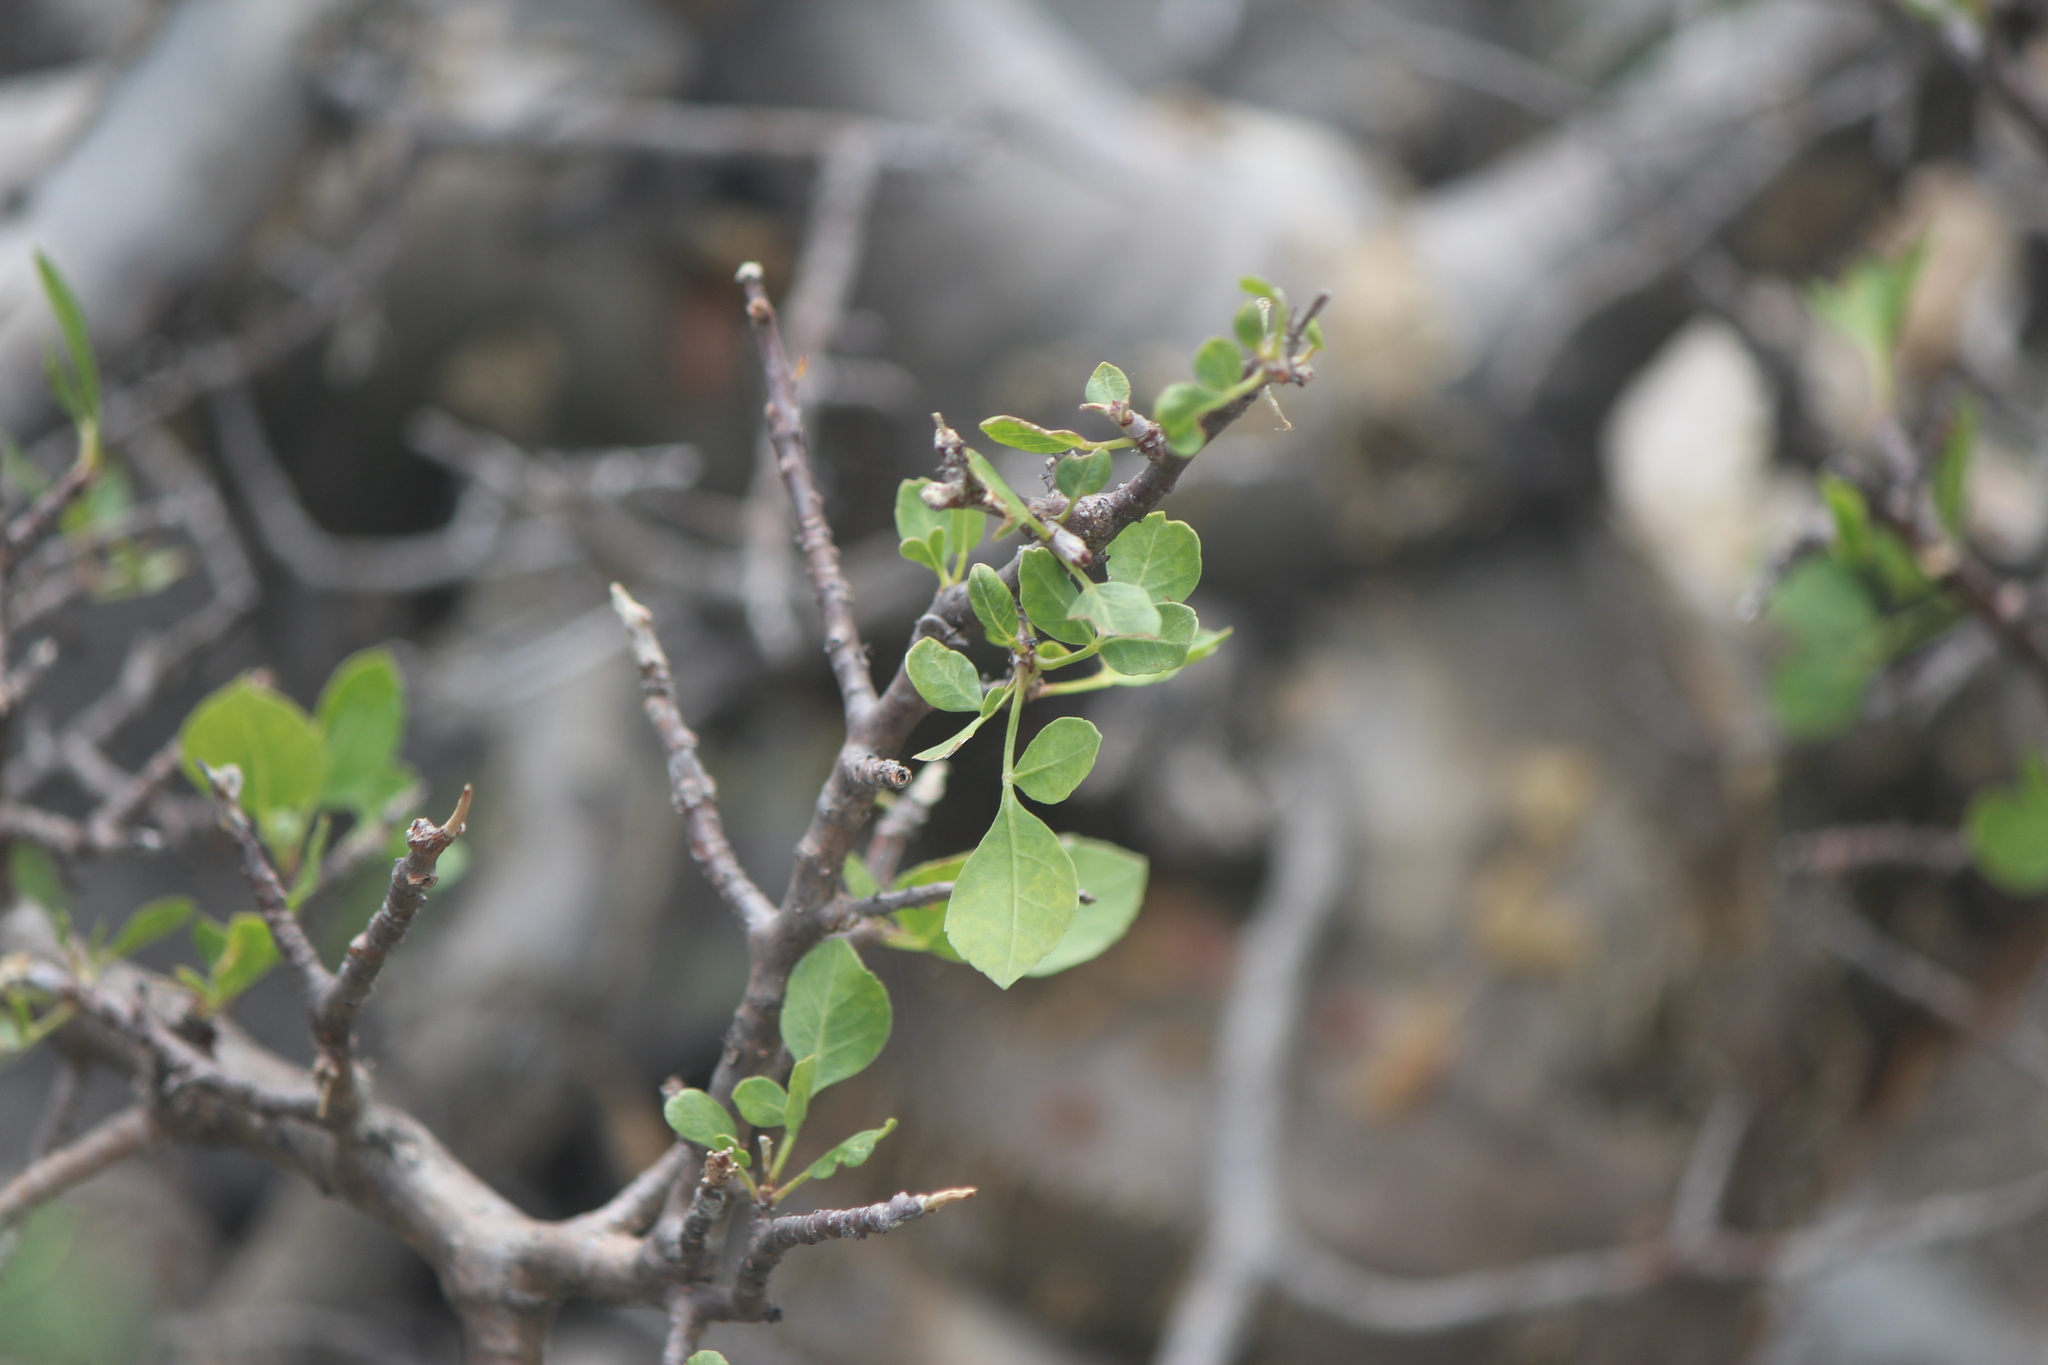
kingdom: Plantae
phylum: Tracheophyta
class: Magnoliopsida
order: Sapindales
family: Burseraceae
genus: Bursera
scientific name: Bursera fagaroides
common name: Elephant tree
